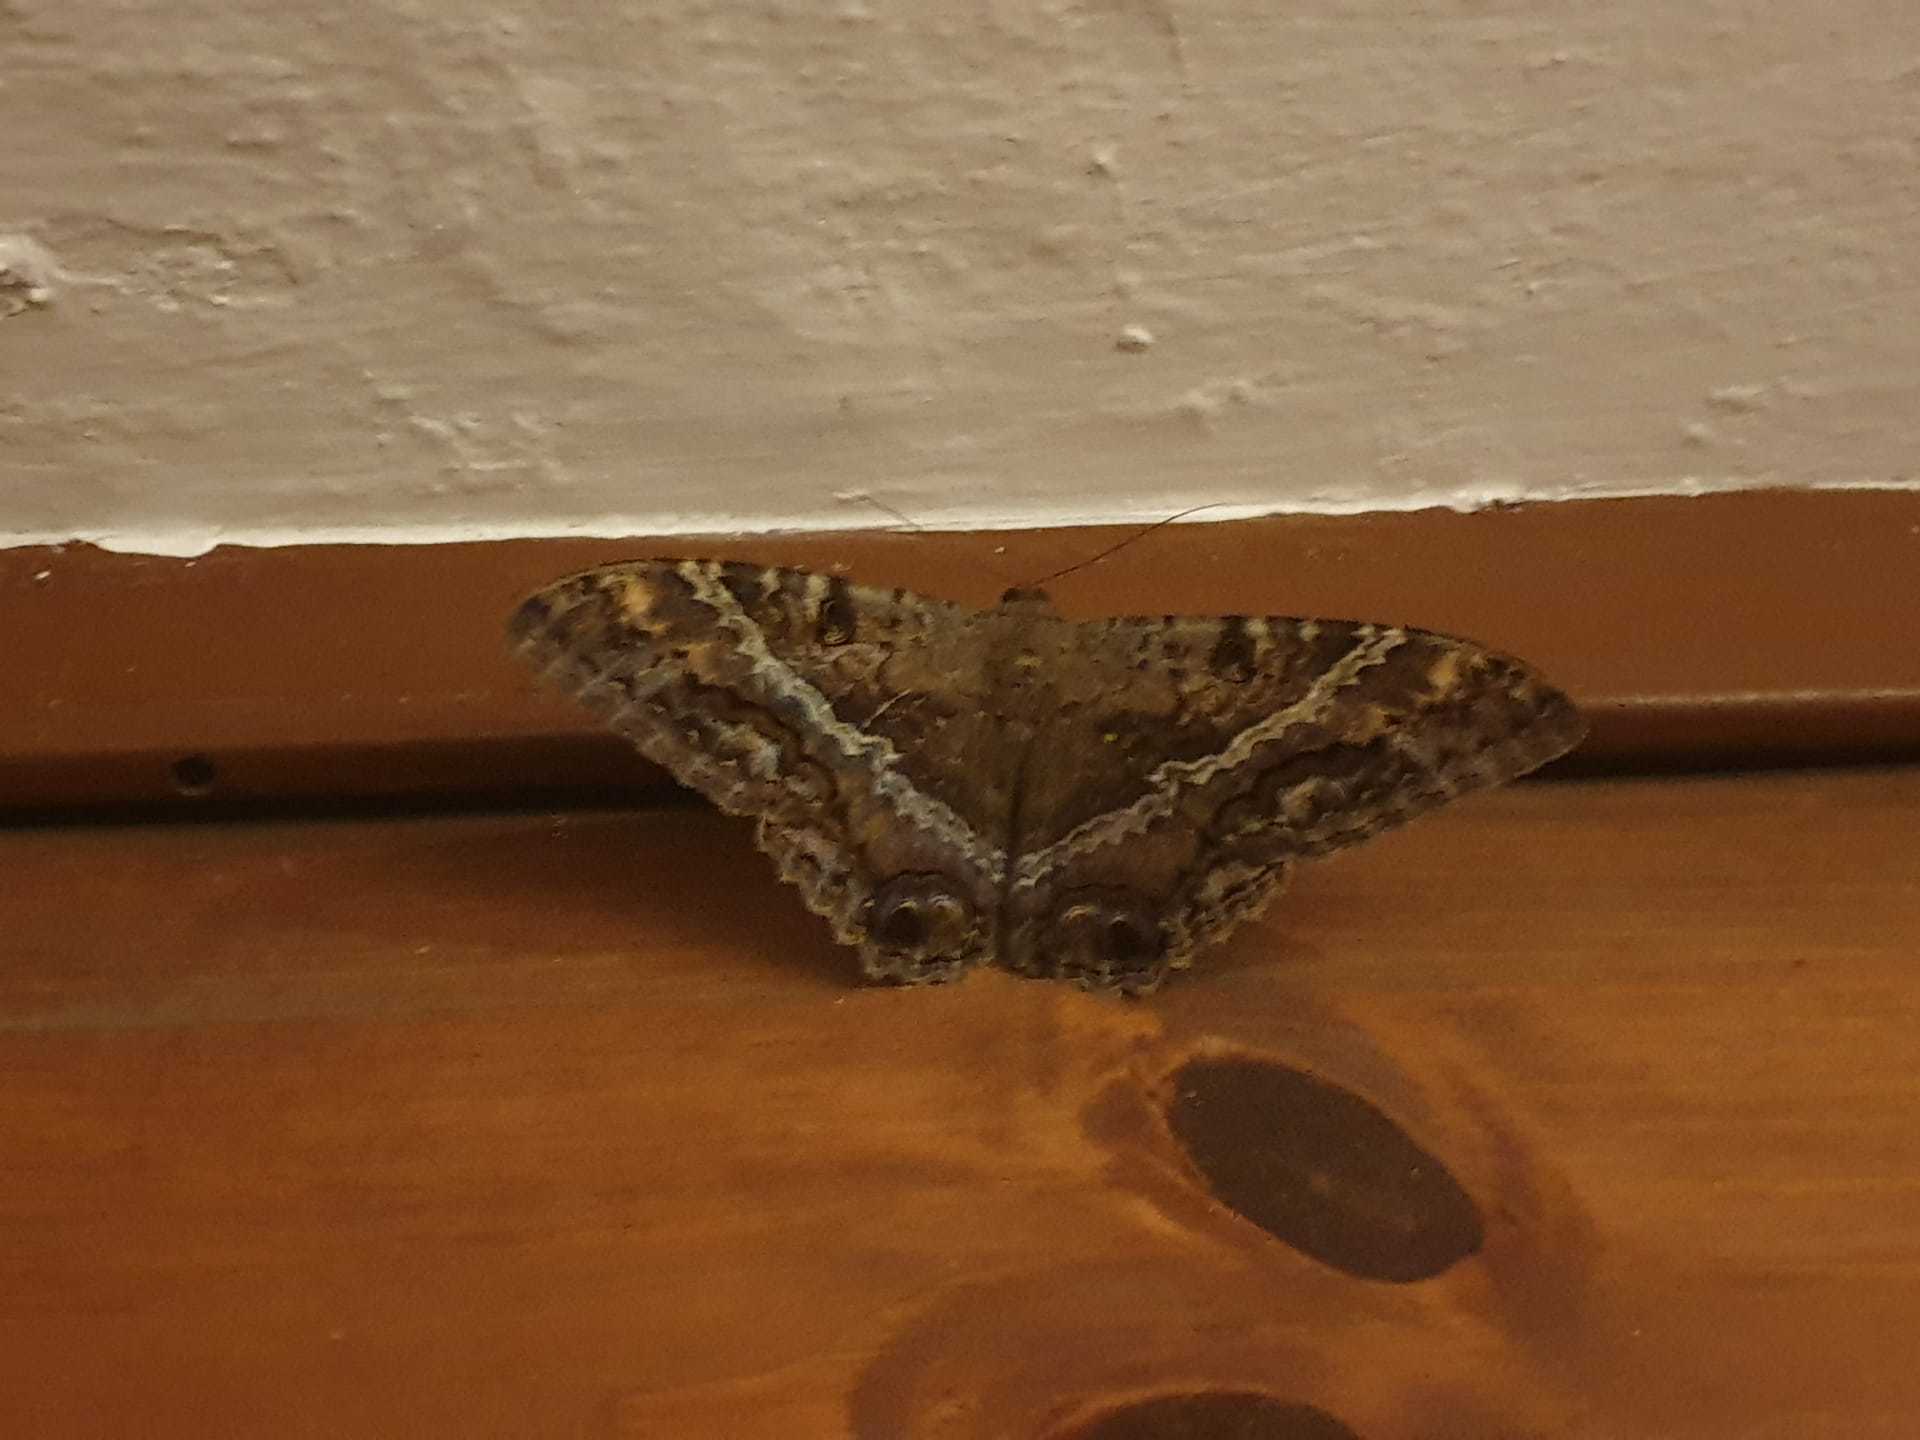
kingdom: Animalia
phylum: Arthropoda
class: Insecta
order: Lepidoptera
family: Erebidae
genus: Ascalapha
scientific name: Ascalapha odorata
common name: Black witch
